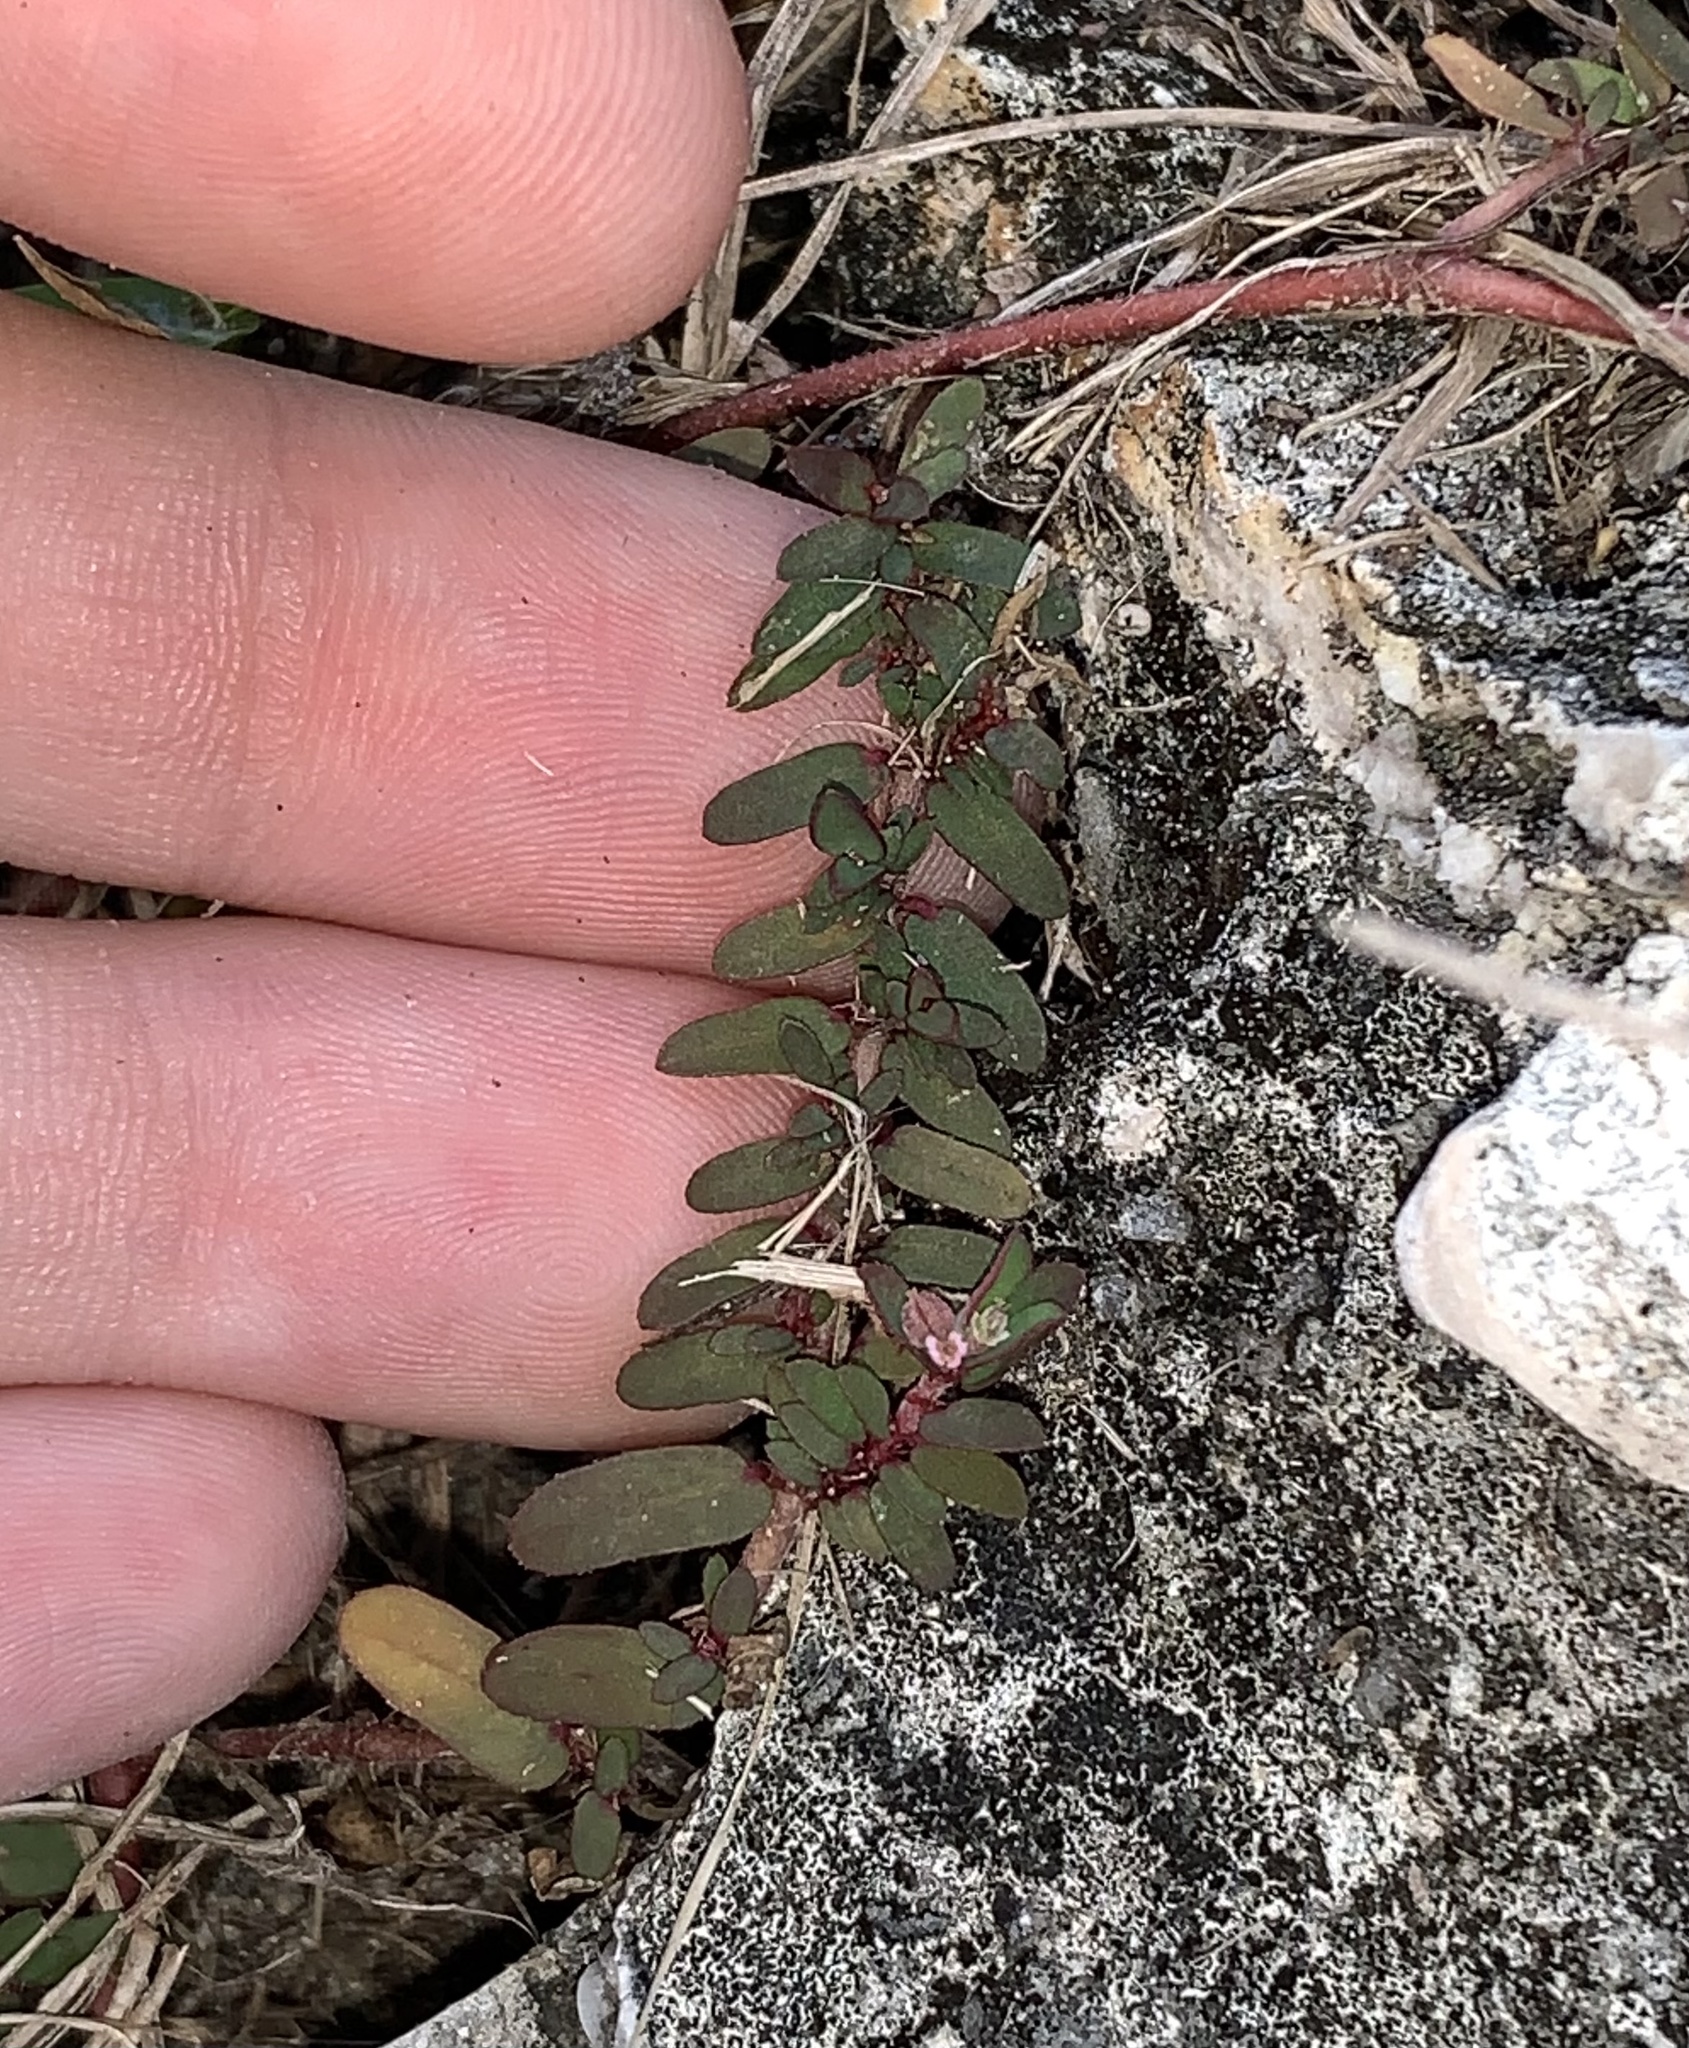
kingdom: Plantae
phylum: Tracheophyta
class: Magnoliopsida
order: Malpighiales
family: Euphorbiaceae
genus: Euphorbia
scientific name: Euphorbia maculata
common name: Spotted spurge
